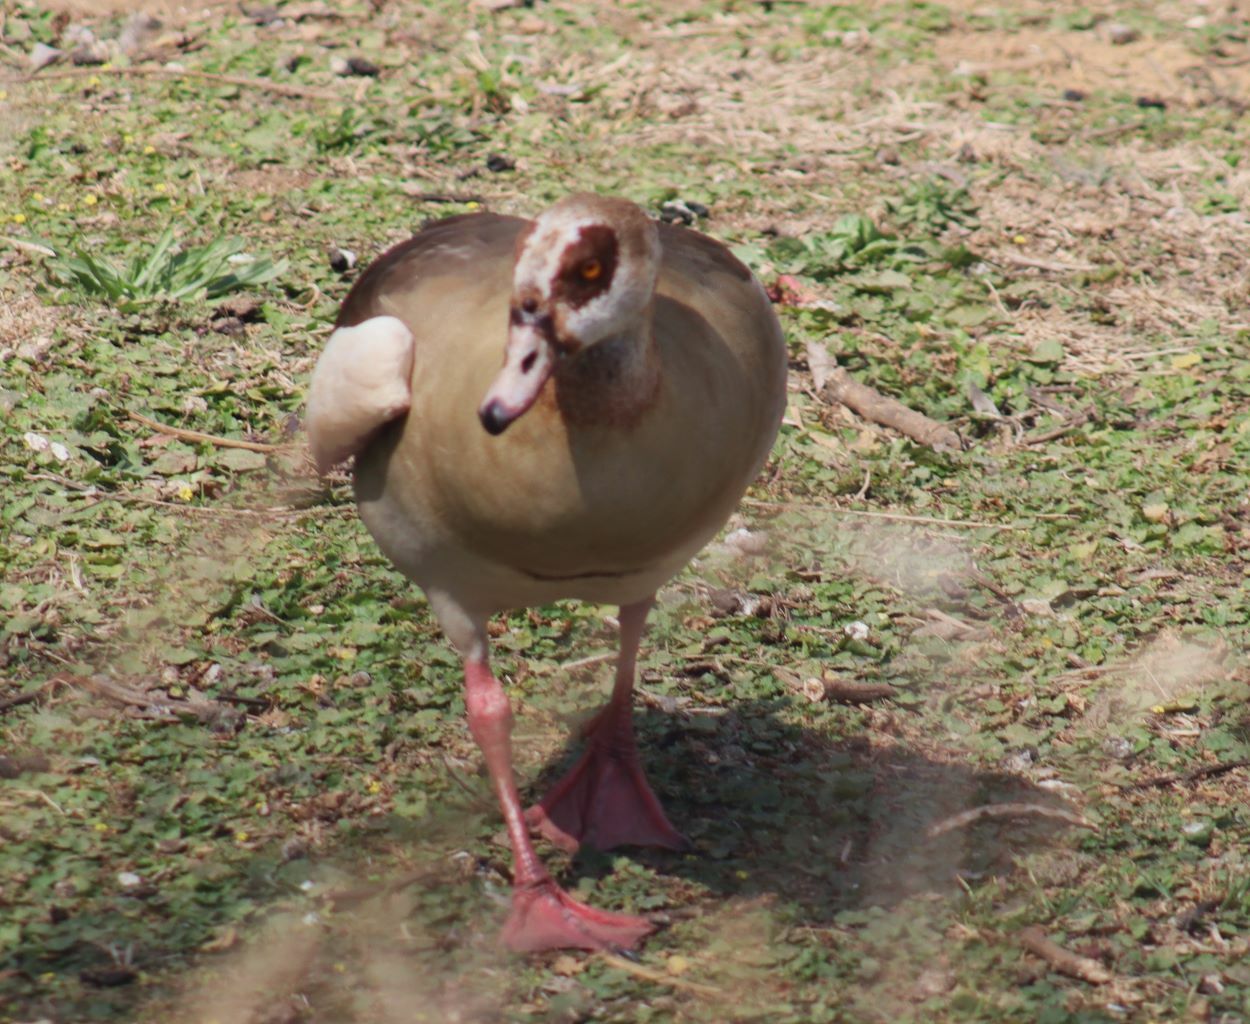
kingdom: Animalia
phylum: Chordata
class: Aves
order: Anseriformes
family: Anatidae
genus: Alopochen
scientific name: Alopochen aegyptiaca
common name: Egyptian goose
